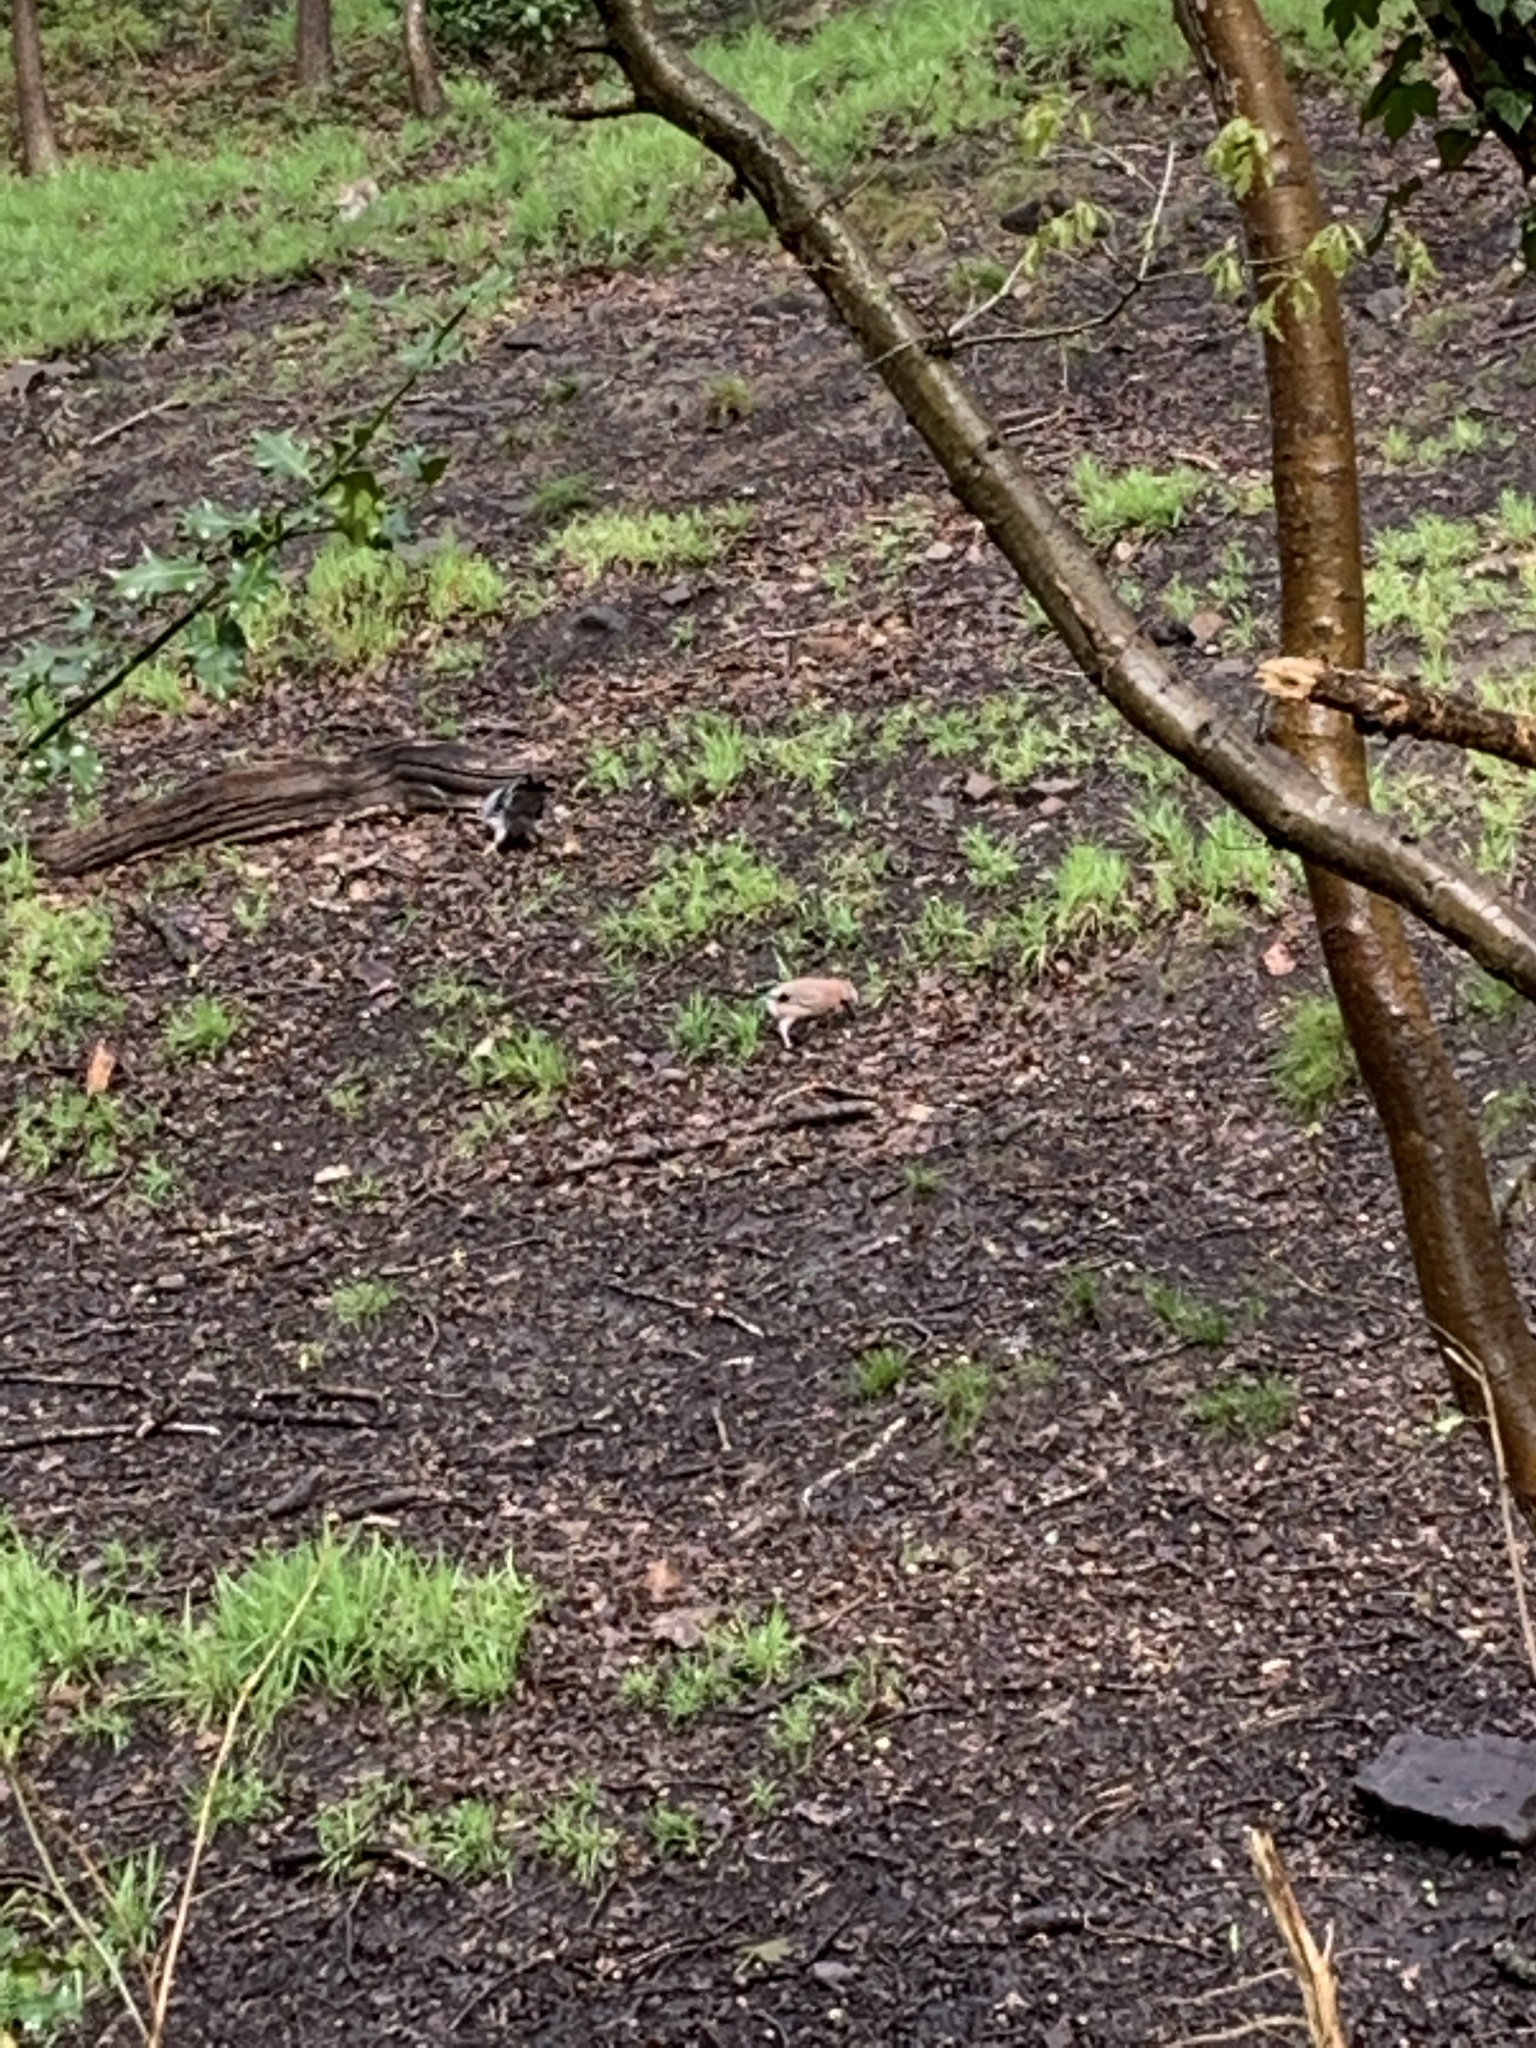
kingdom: Animalia
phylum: Chordata
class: Aves
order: Passeriformes
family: Corvidae
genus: Garrulus
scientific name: Garrulus glandarius
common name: Eurasian jay
